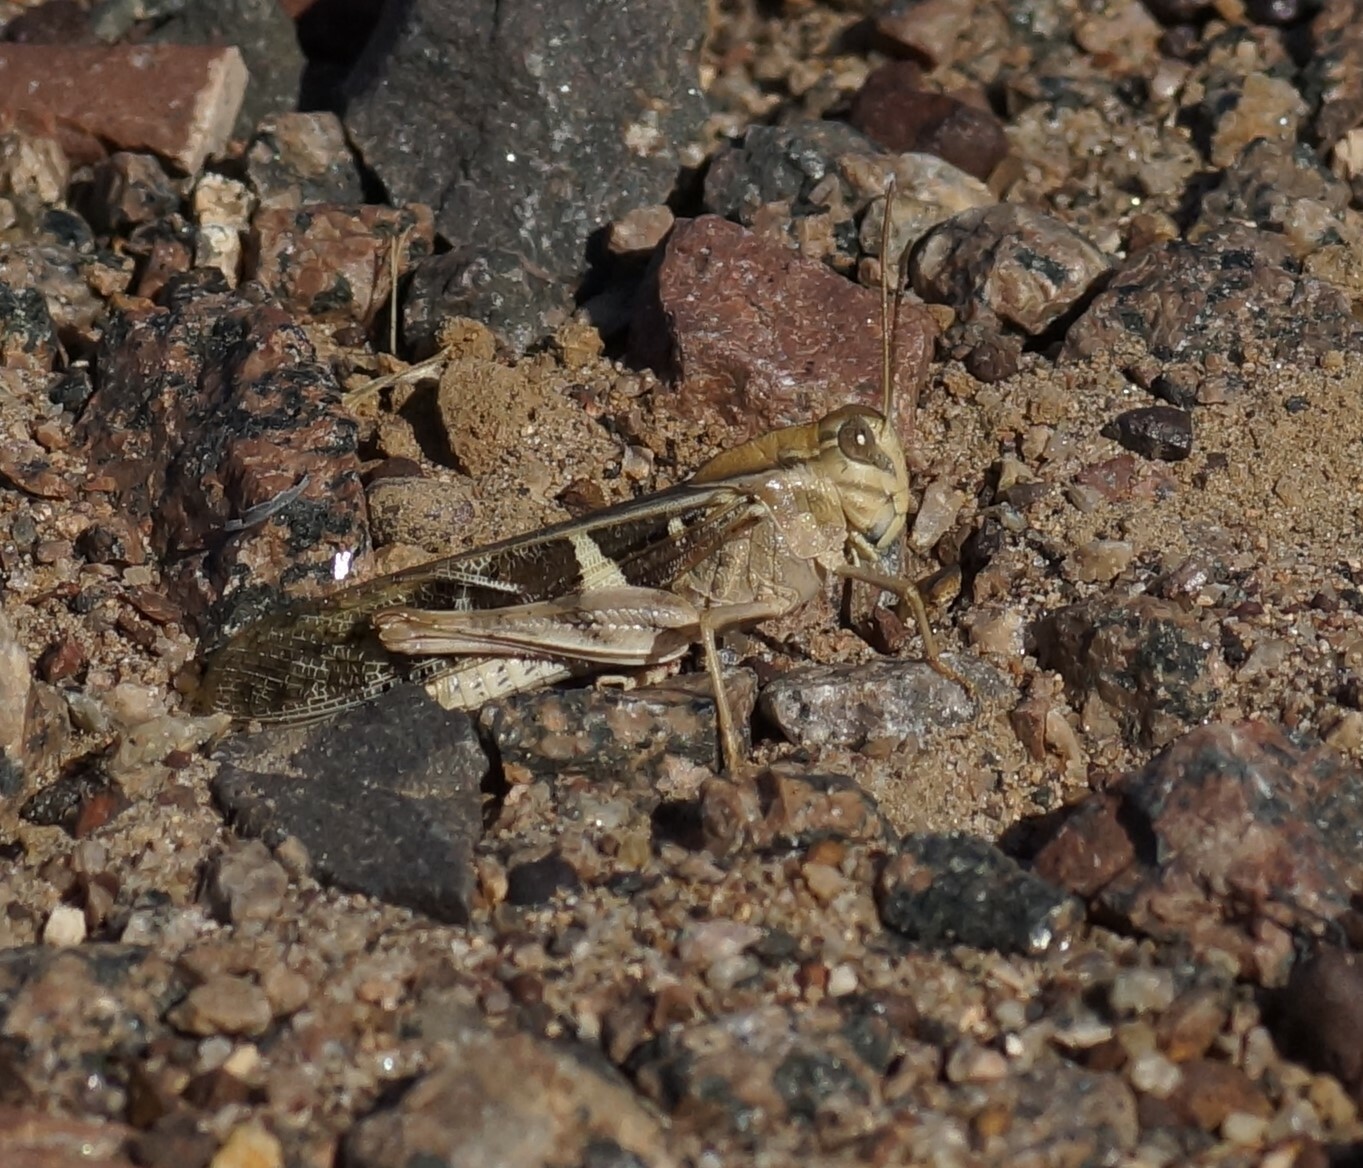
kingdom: Animalia
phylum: Arthropoda
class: Insecta
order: Orthoptera
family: Acrididae
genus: Gastrimargus
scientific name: Gastrimargus musicus
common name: Yellow-winged locust
